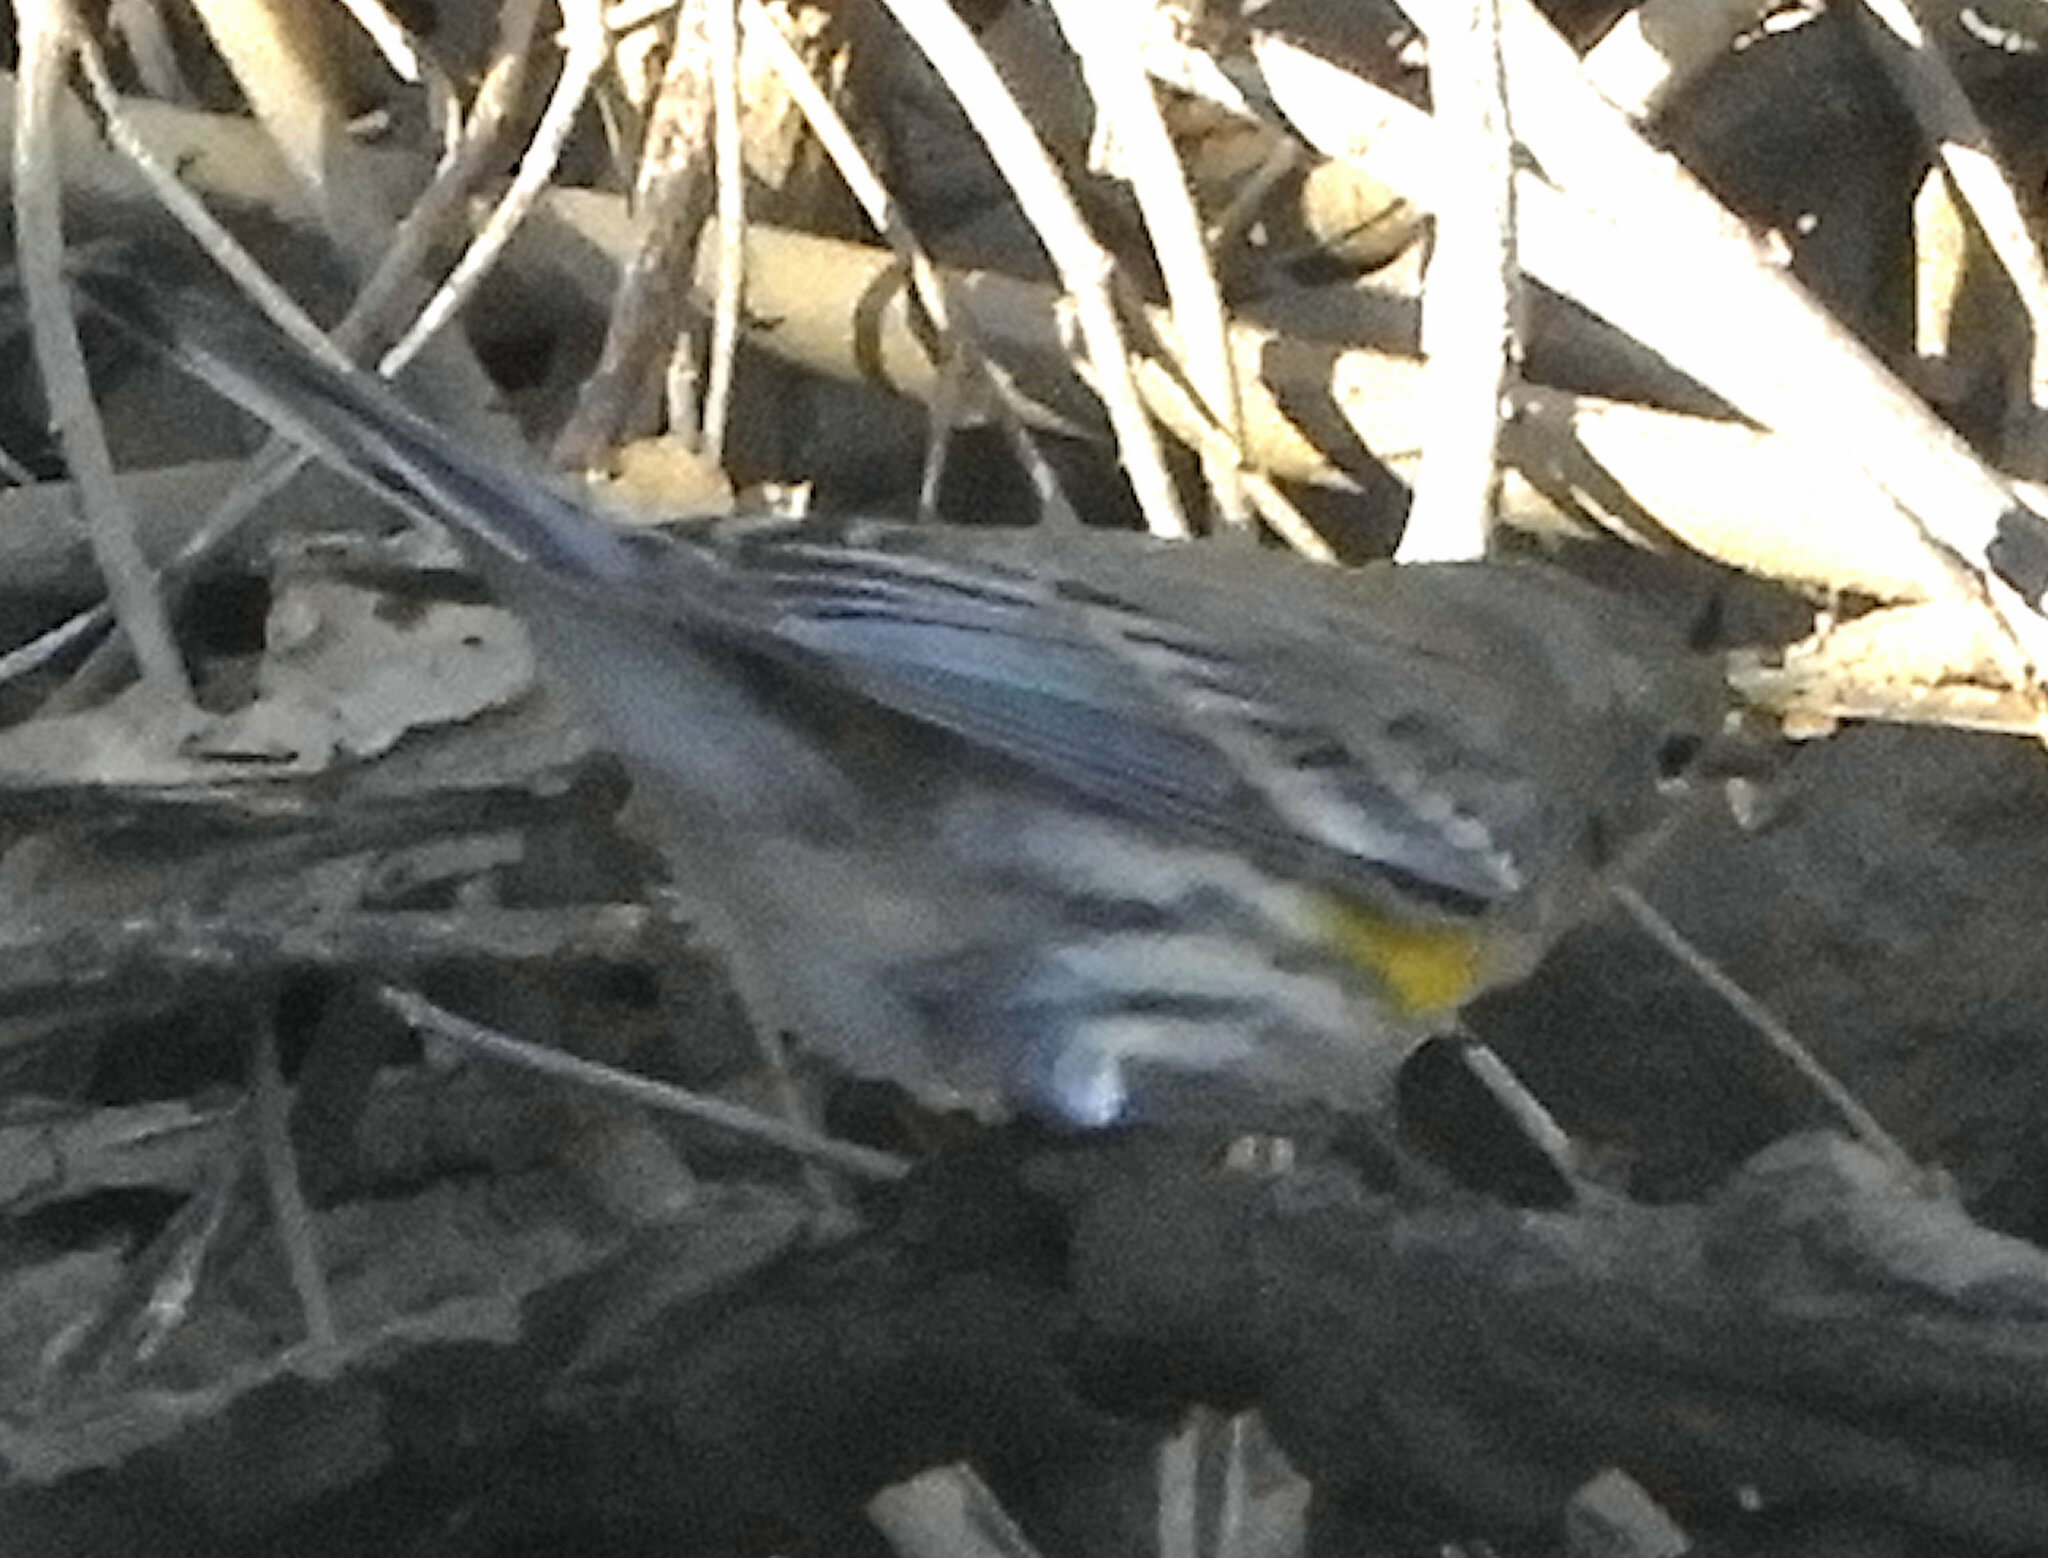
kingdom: Animalia
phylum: Chordata
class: Aves
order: Passeriformes
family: Parulidae
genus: Setophaga
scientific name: Setophaga auduboni
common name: Audubon's warbler
